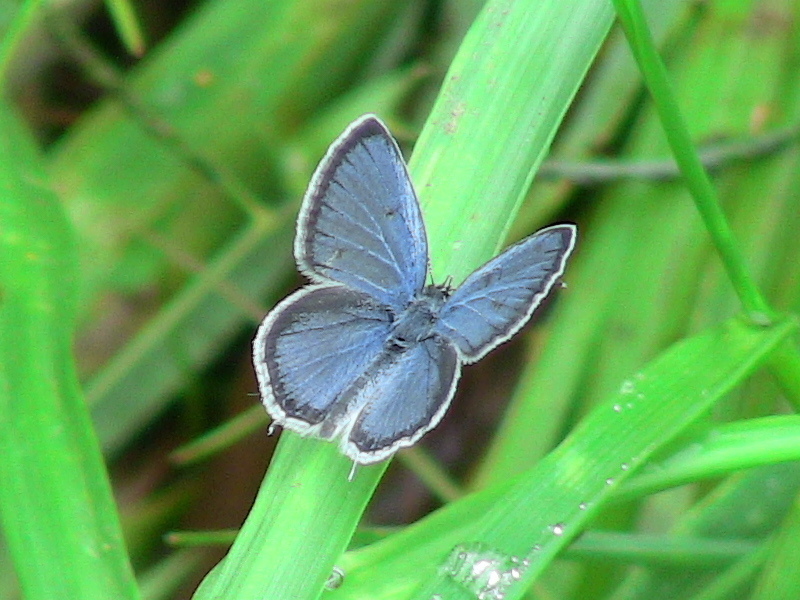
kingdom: Animalia
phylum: Arthropoda
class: Insecta
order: Lepidoptera
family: Lycaenidae
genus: Elkalyce
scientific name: Elkalyce comyntas
